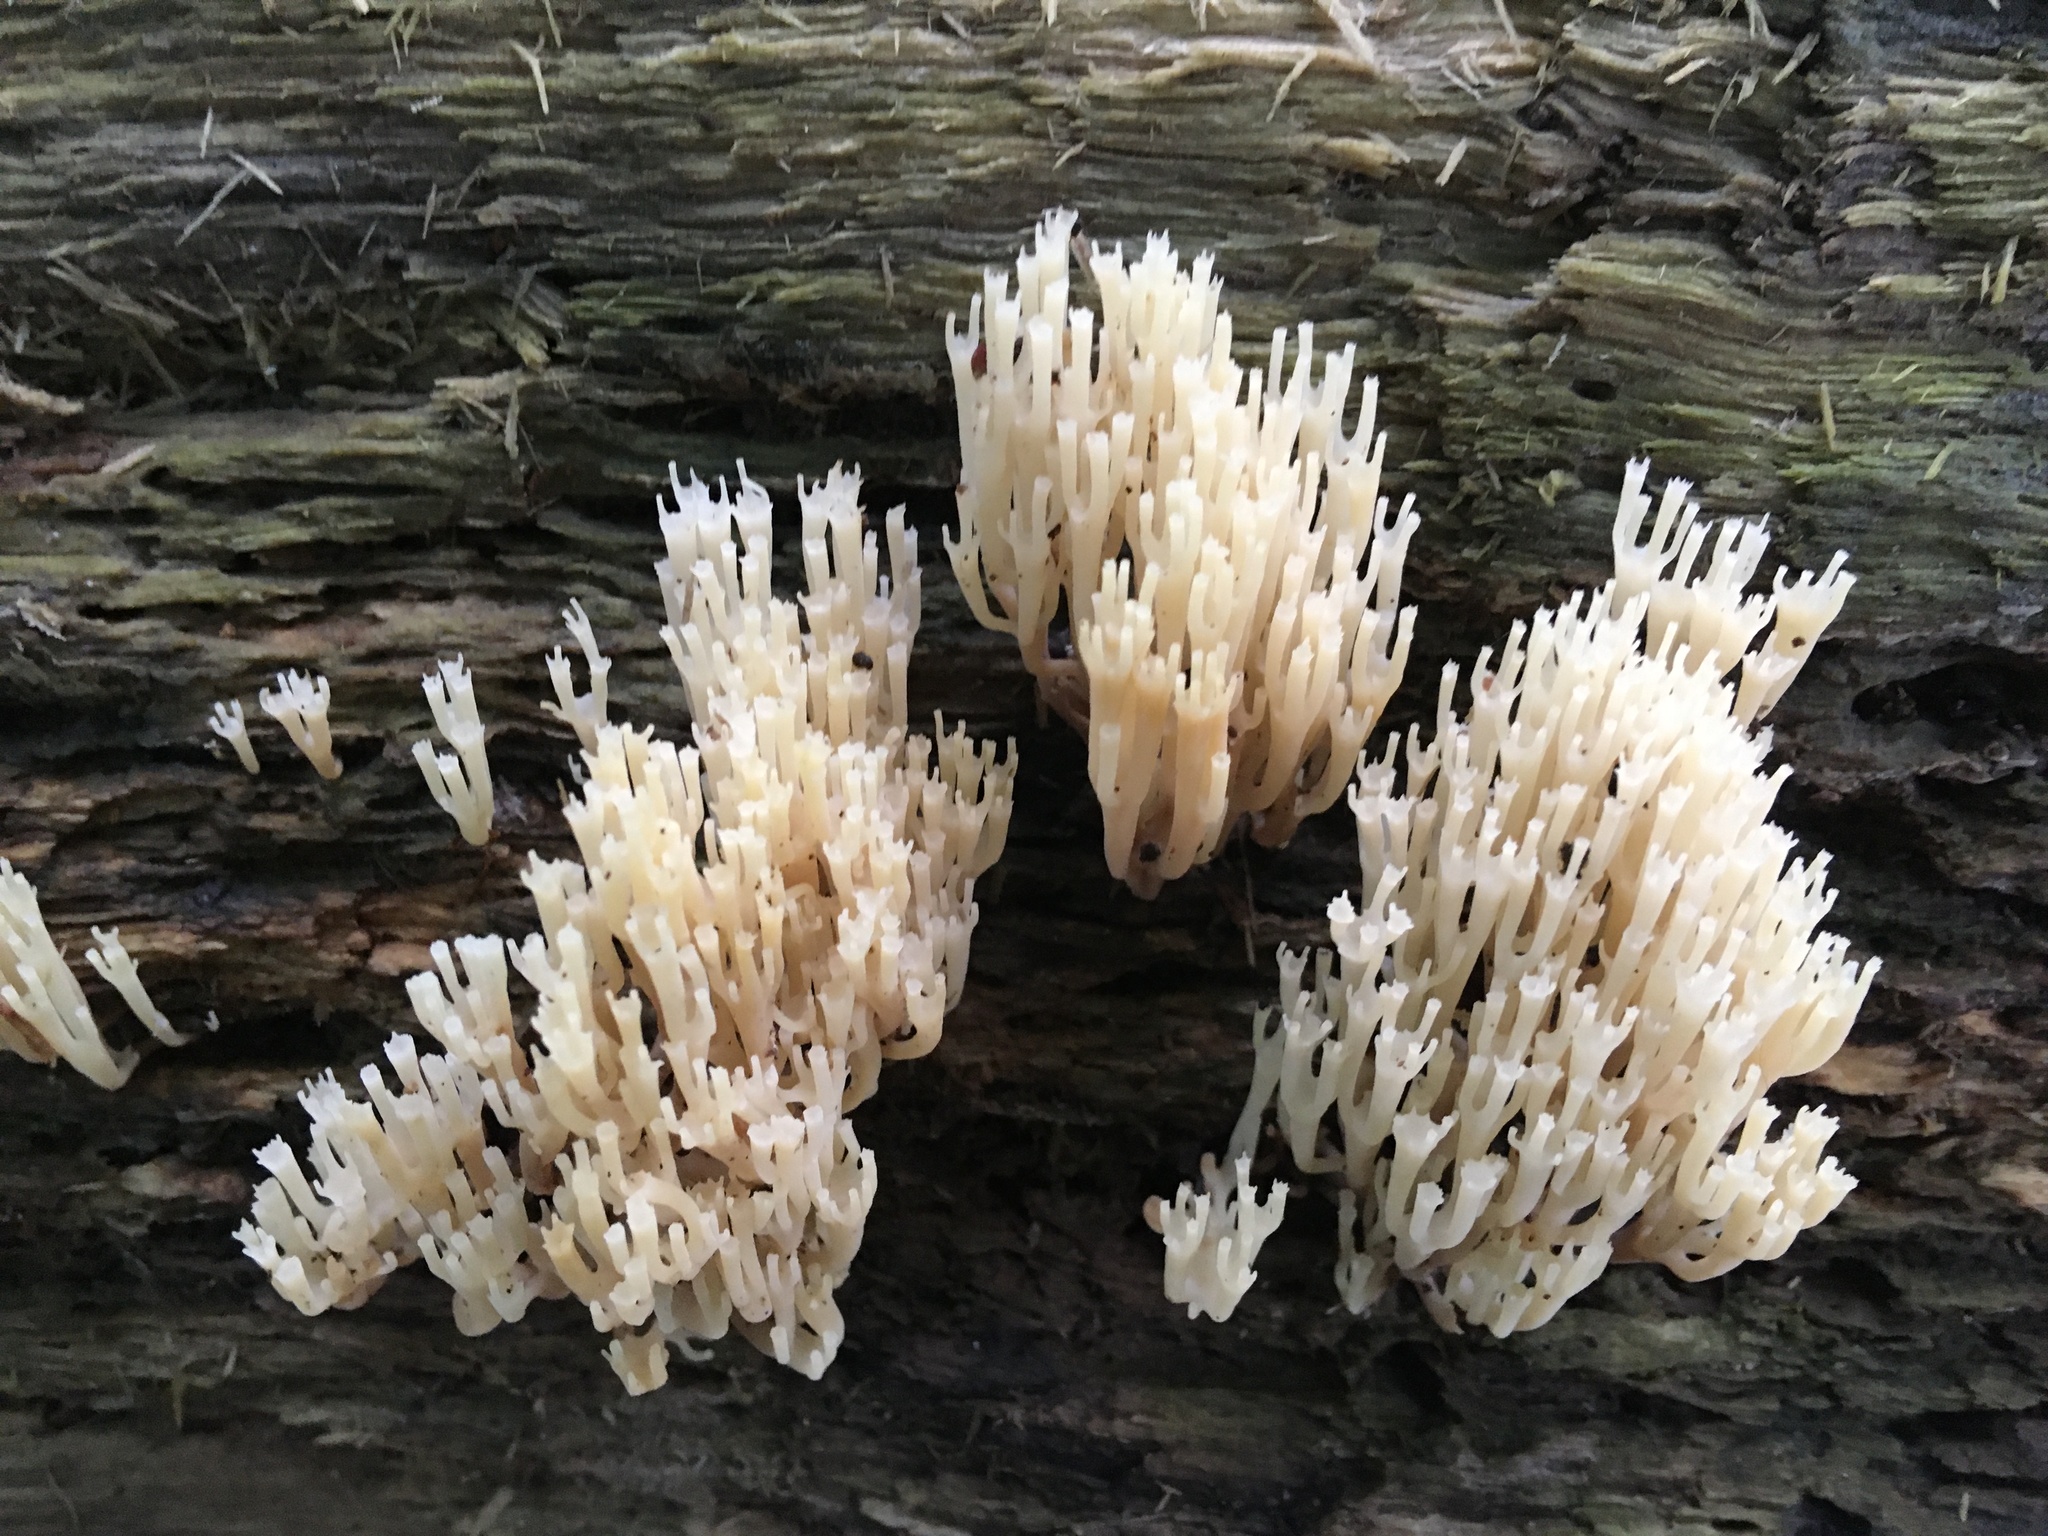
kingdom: Fungi
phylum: Basidiomycota
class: Agaricomycetes
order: Russulales
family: Auriscalpiaceae
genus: Artomyces
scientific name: Artomyces pyxidatus
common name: Crown-tipped coral fungus
